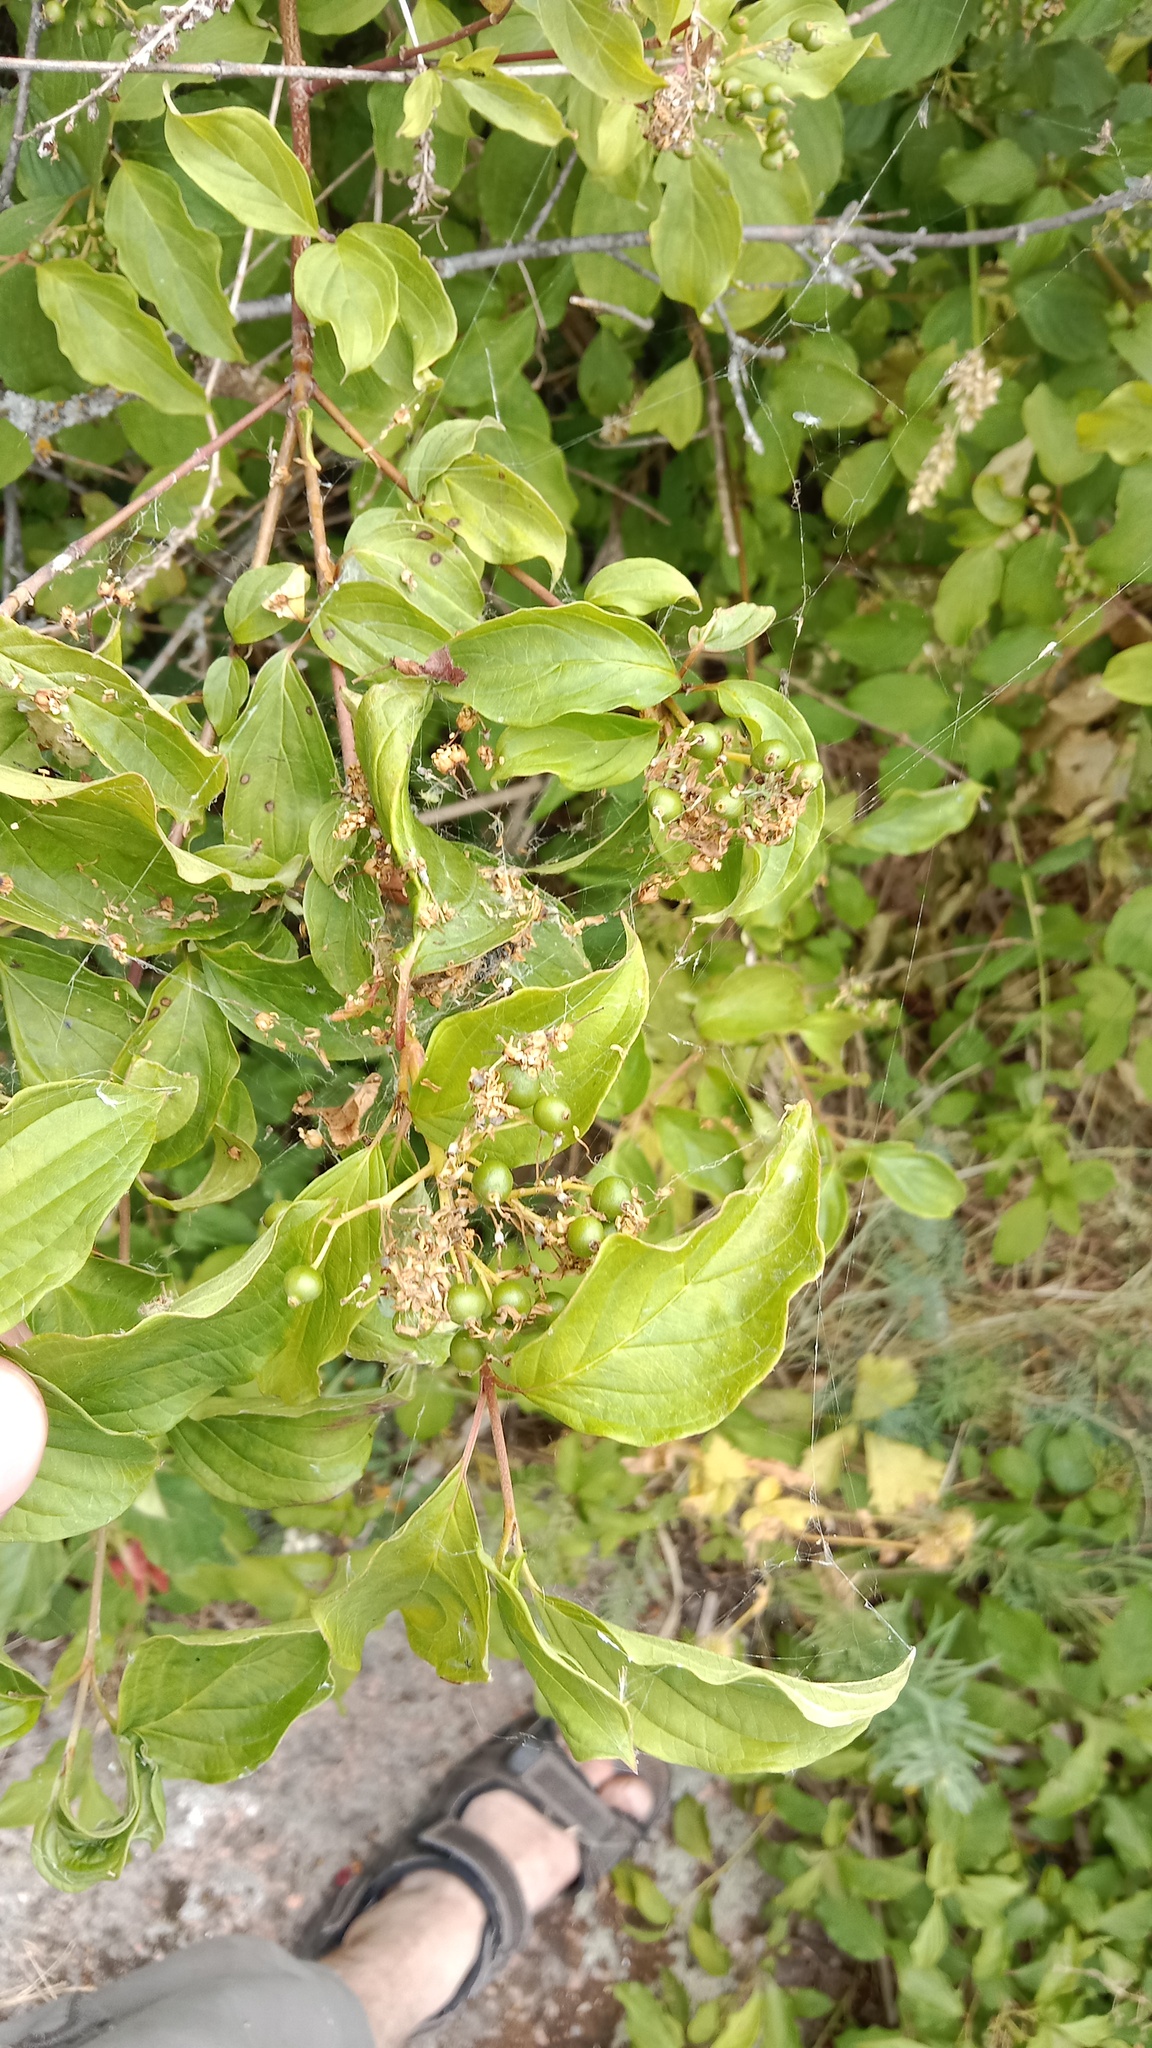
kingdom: Plantae
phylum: Tracheophyta
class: Magnoliopsida
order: Cornales
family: Cornaceae
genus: Cornus
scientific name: Cornus sanguinea
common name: Dogwood
